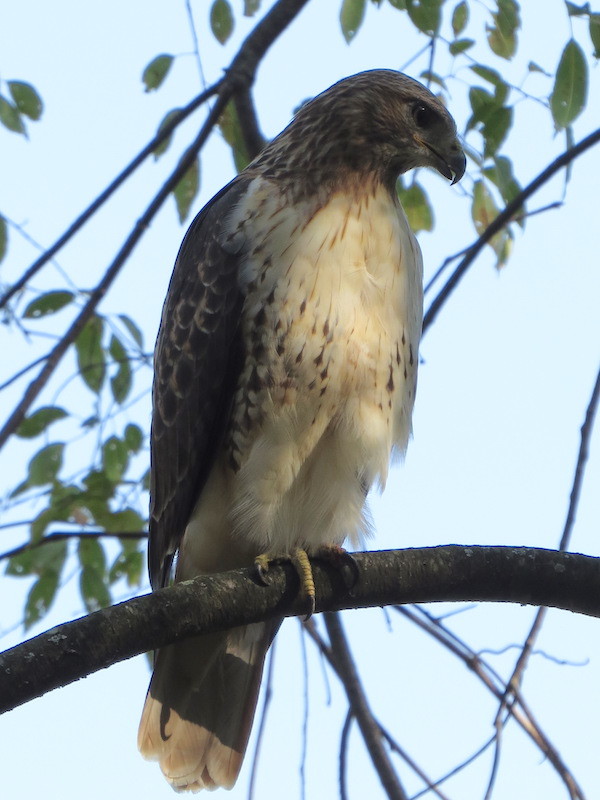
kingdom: Animalia
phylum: Chordata
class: Aves
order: Accipitriformes
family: Accipitridae
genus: Buteo
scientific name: Buteo jamaicensis
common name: Red-tailed hawk
